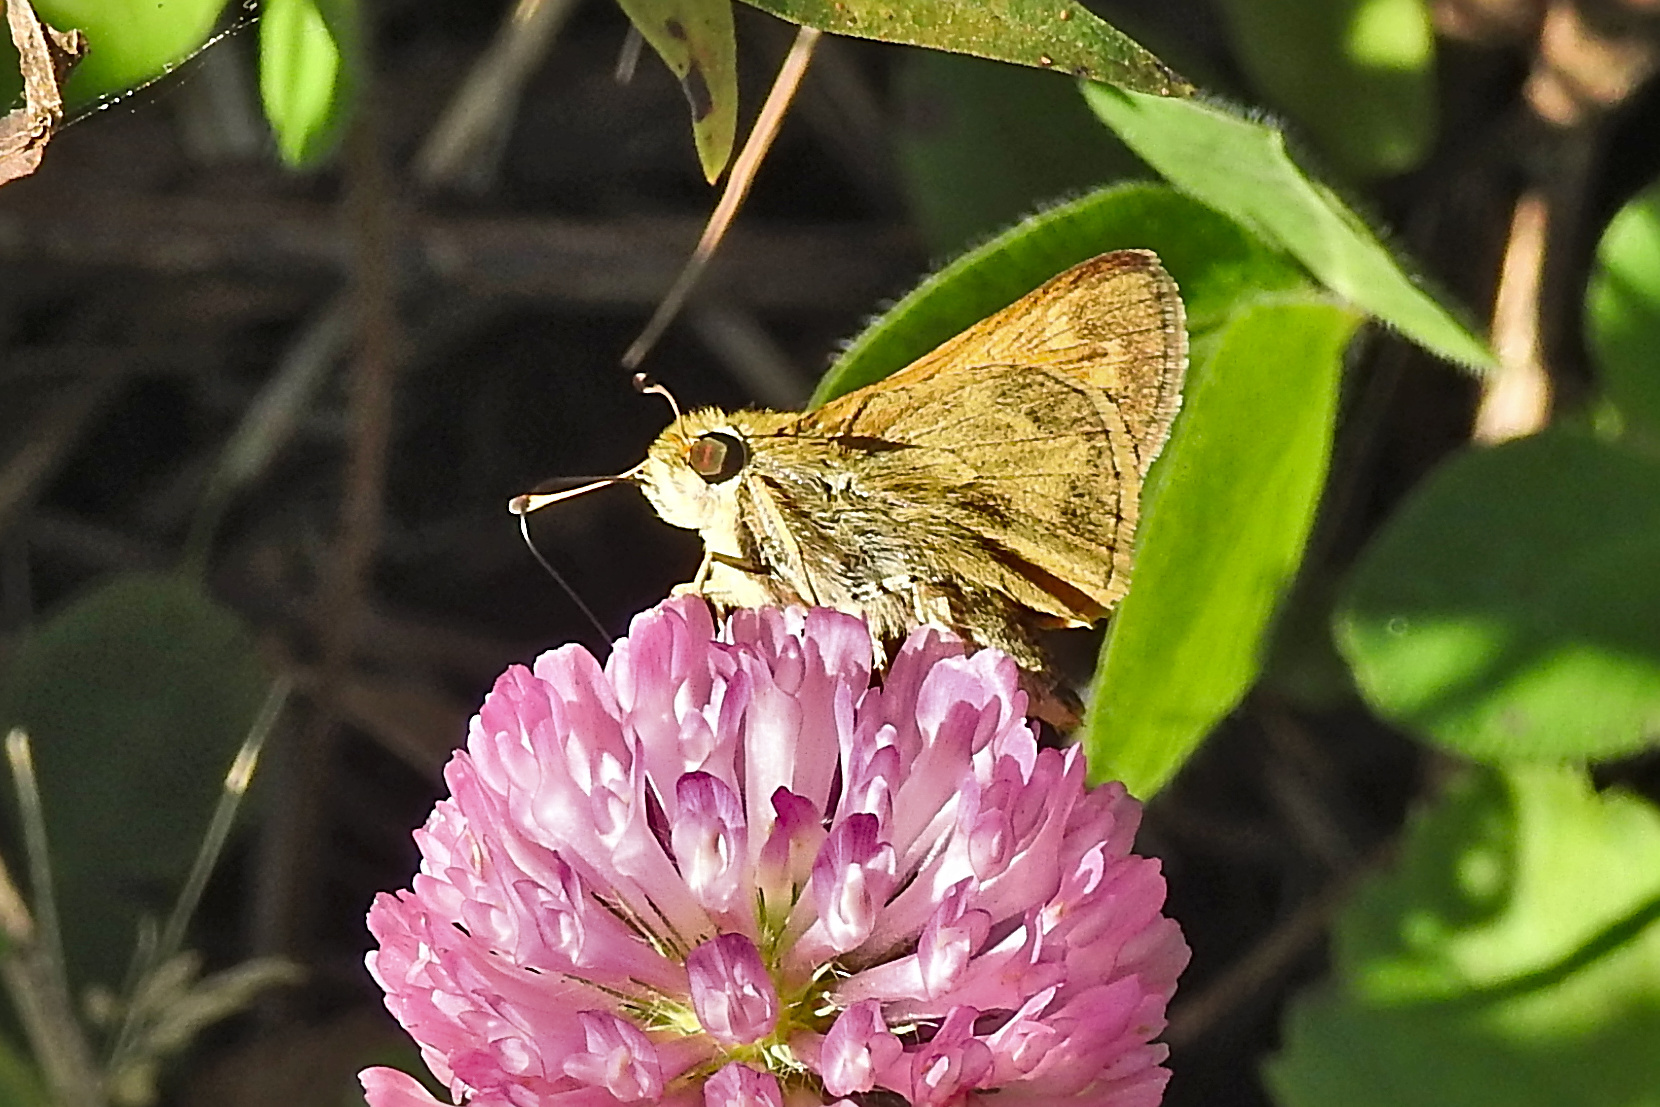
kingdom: Animalia
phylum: Arthropoda
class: Insecta
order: Lepidoptera
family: Hesperiidae
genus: Atalopedes
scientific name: Atalopedes
